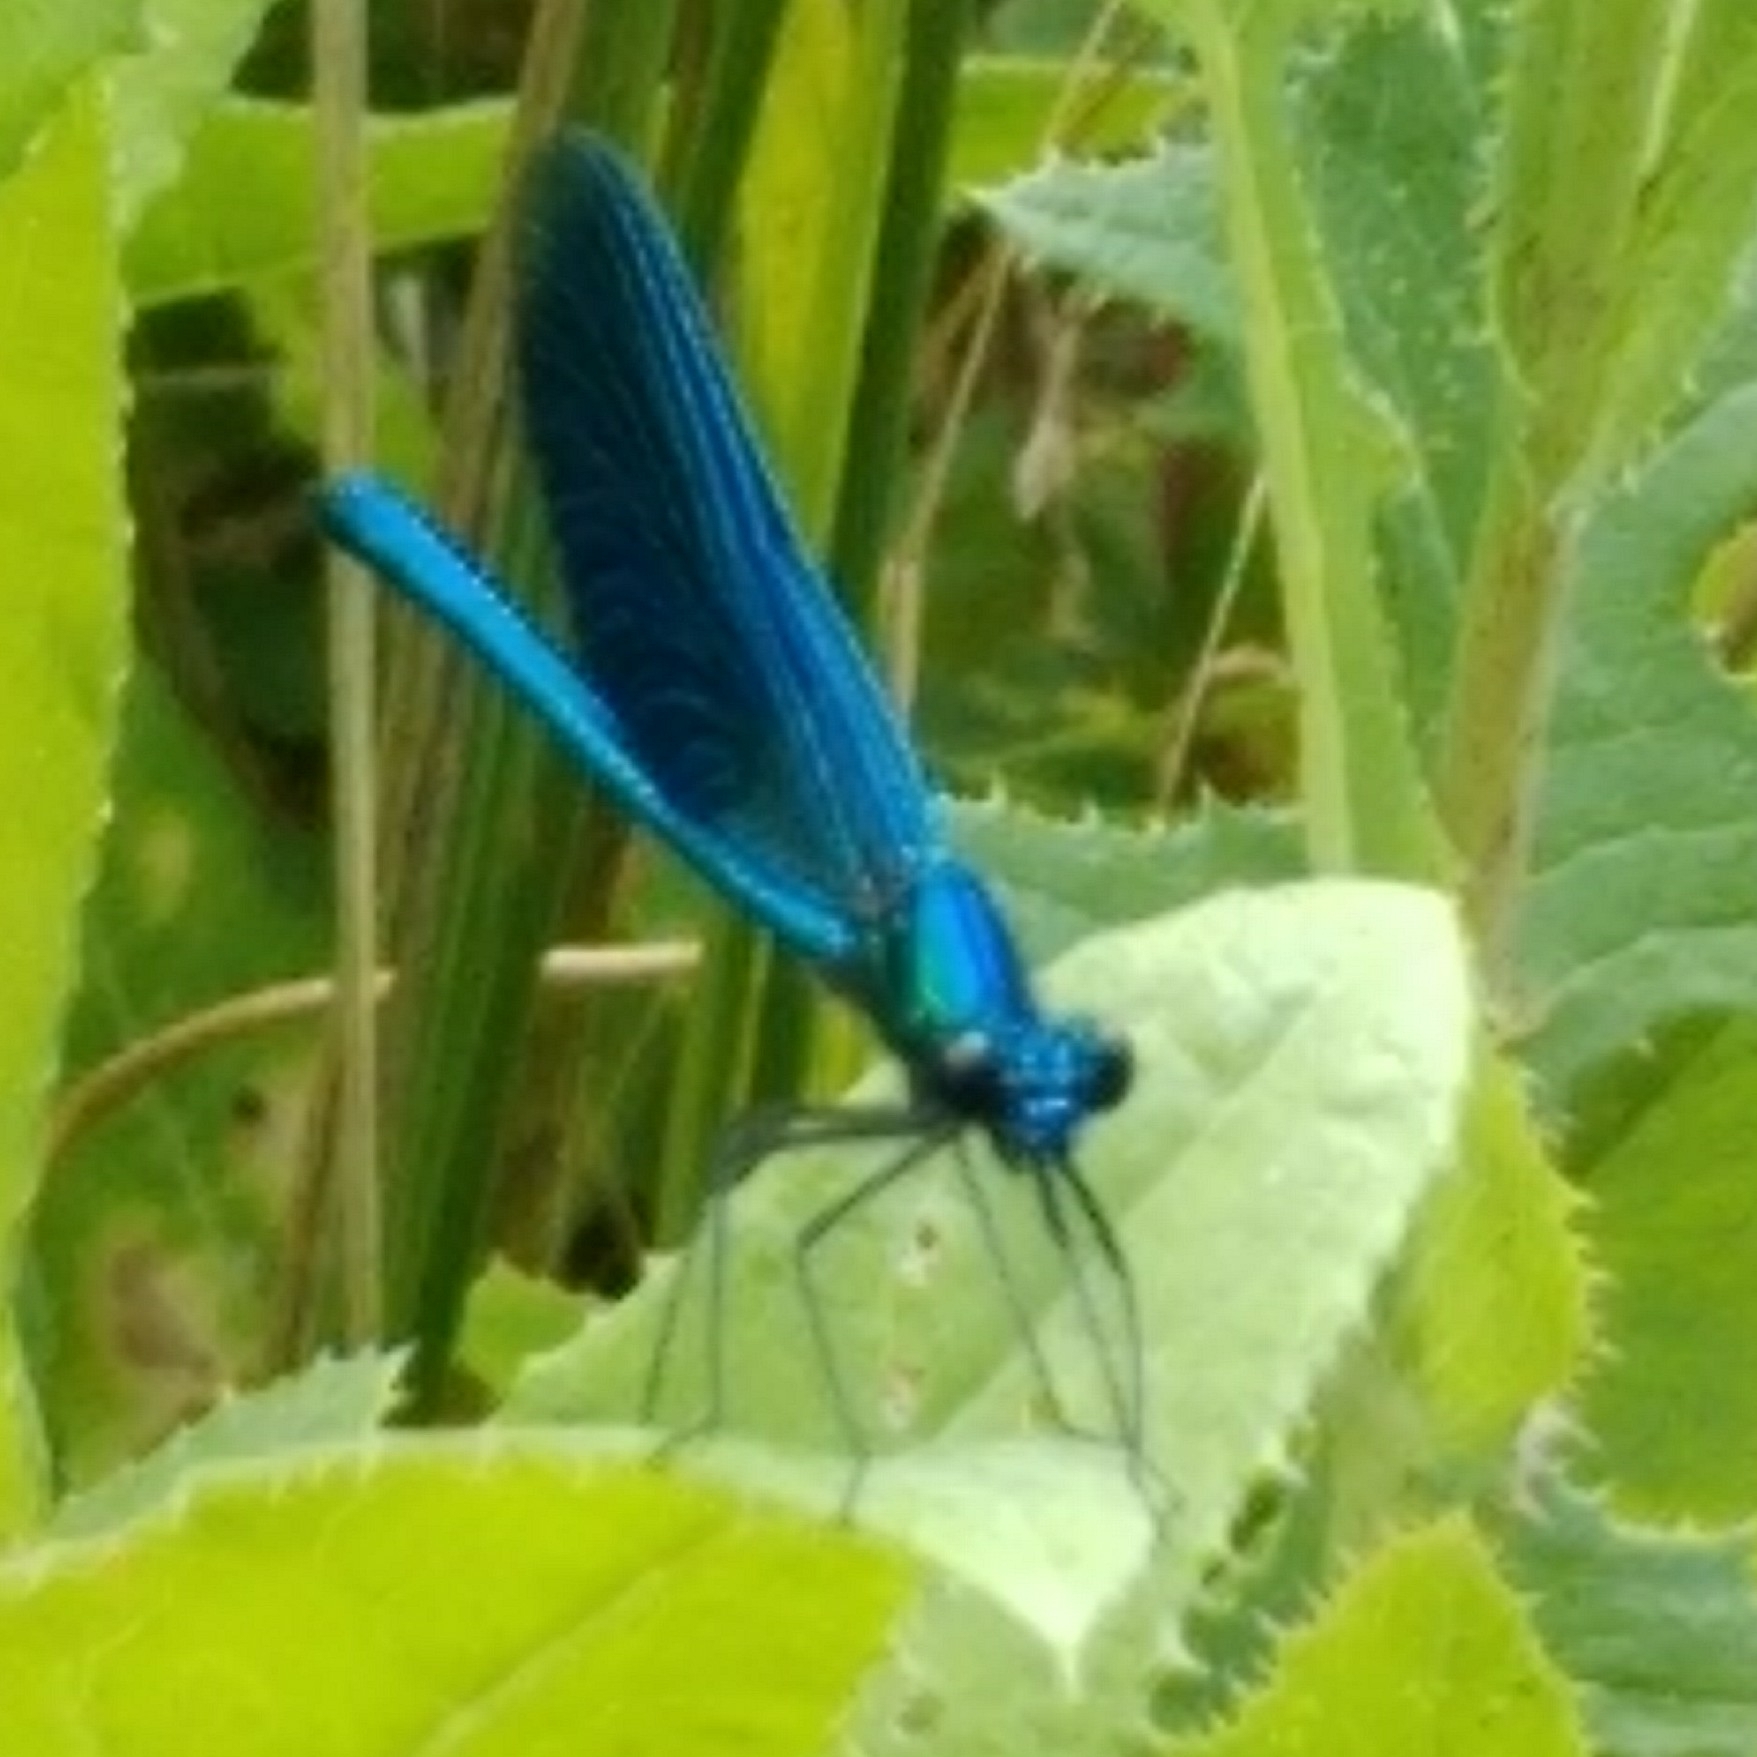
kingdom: Animalia
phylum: Arthropoda
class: Insecta
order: Odonata
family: Calopterygidae
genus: Calopteryx
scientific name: Calopteryx splendens
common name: Banded demoiselle
